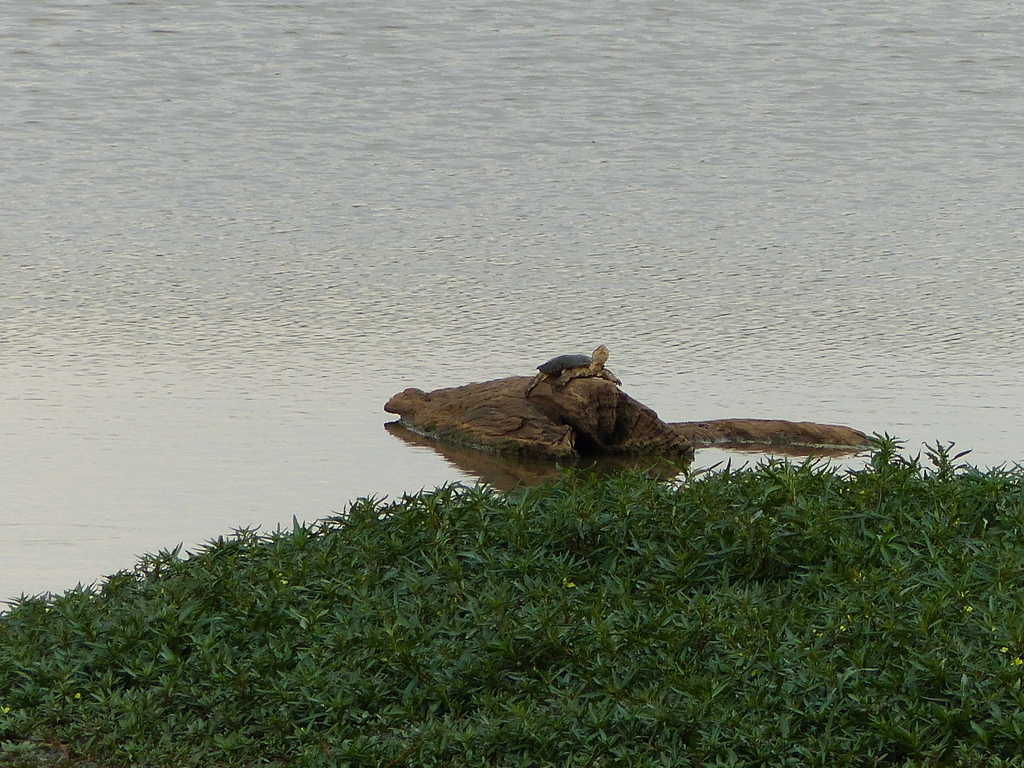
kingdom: Animalia
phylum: Chordata
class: Testudines
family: Pelomedusidae
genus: Pelomedusa
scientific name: Pelomedusa subrufa
